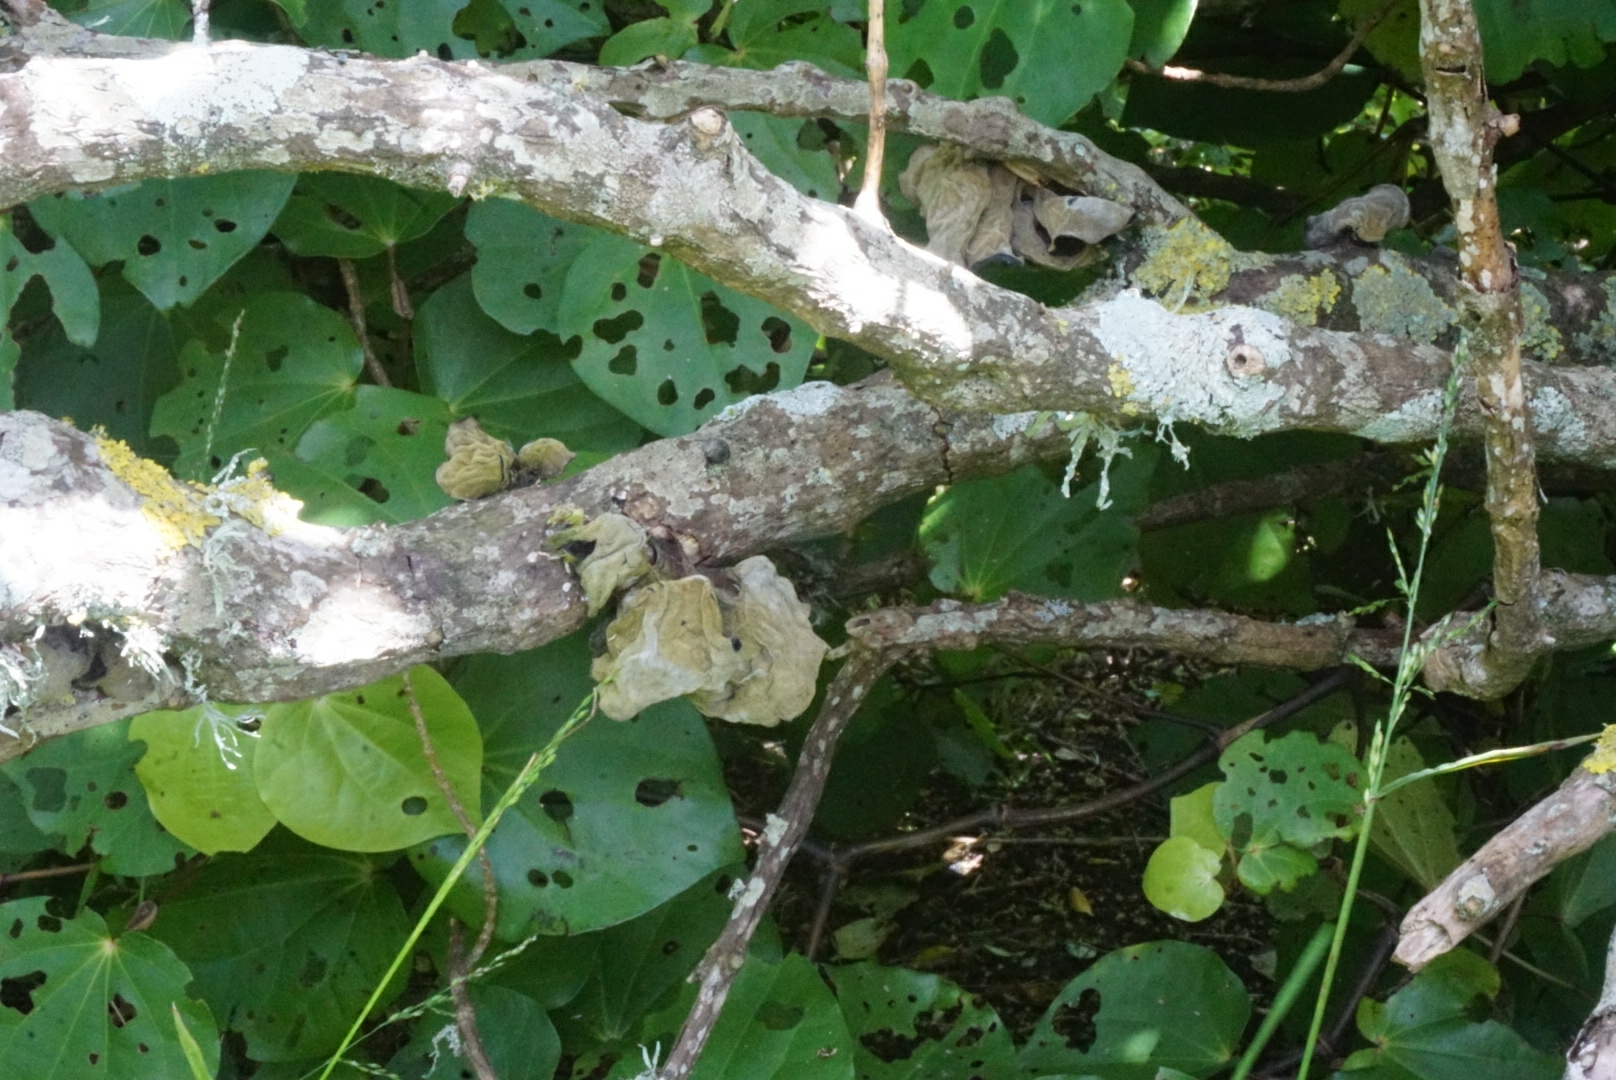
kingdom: Fungi
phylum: Basidiomycota
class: Agaricomycetes
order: Auriculariales
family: Auriculariaceae
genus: Auricularia
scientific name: Auricularia cornea
